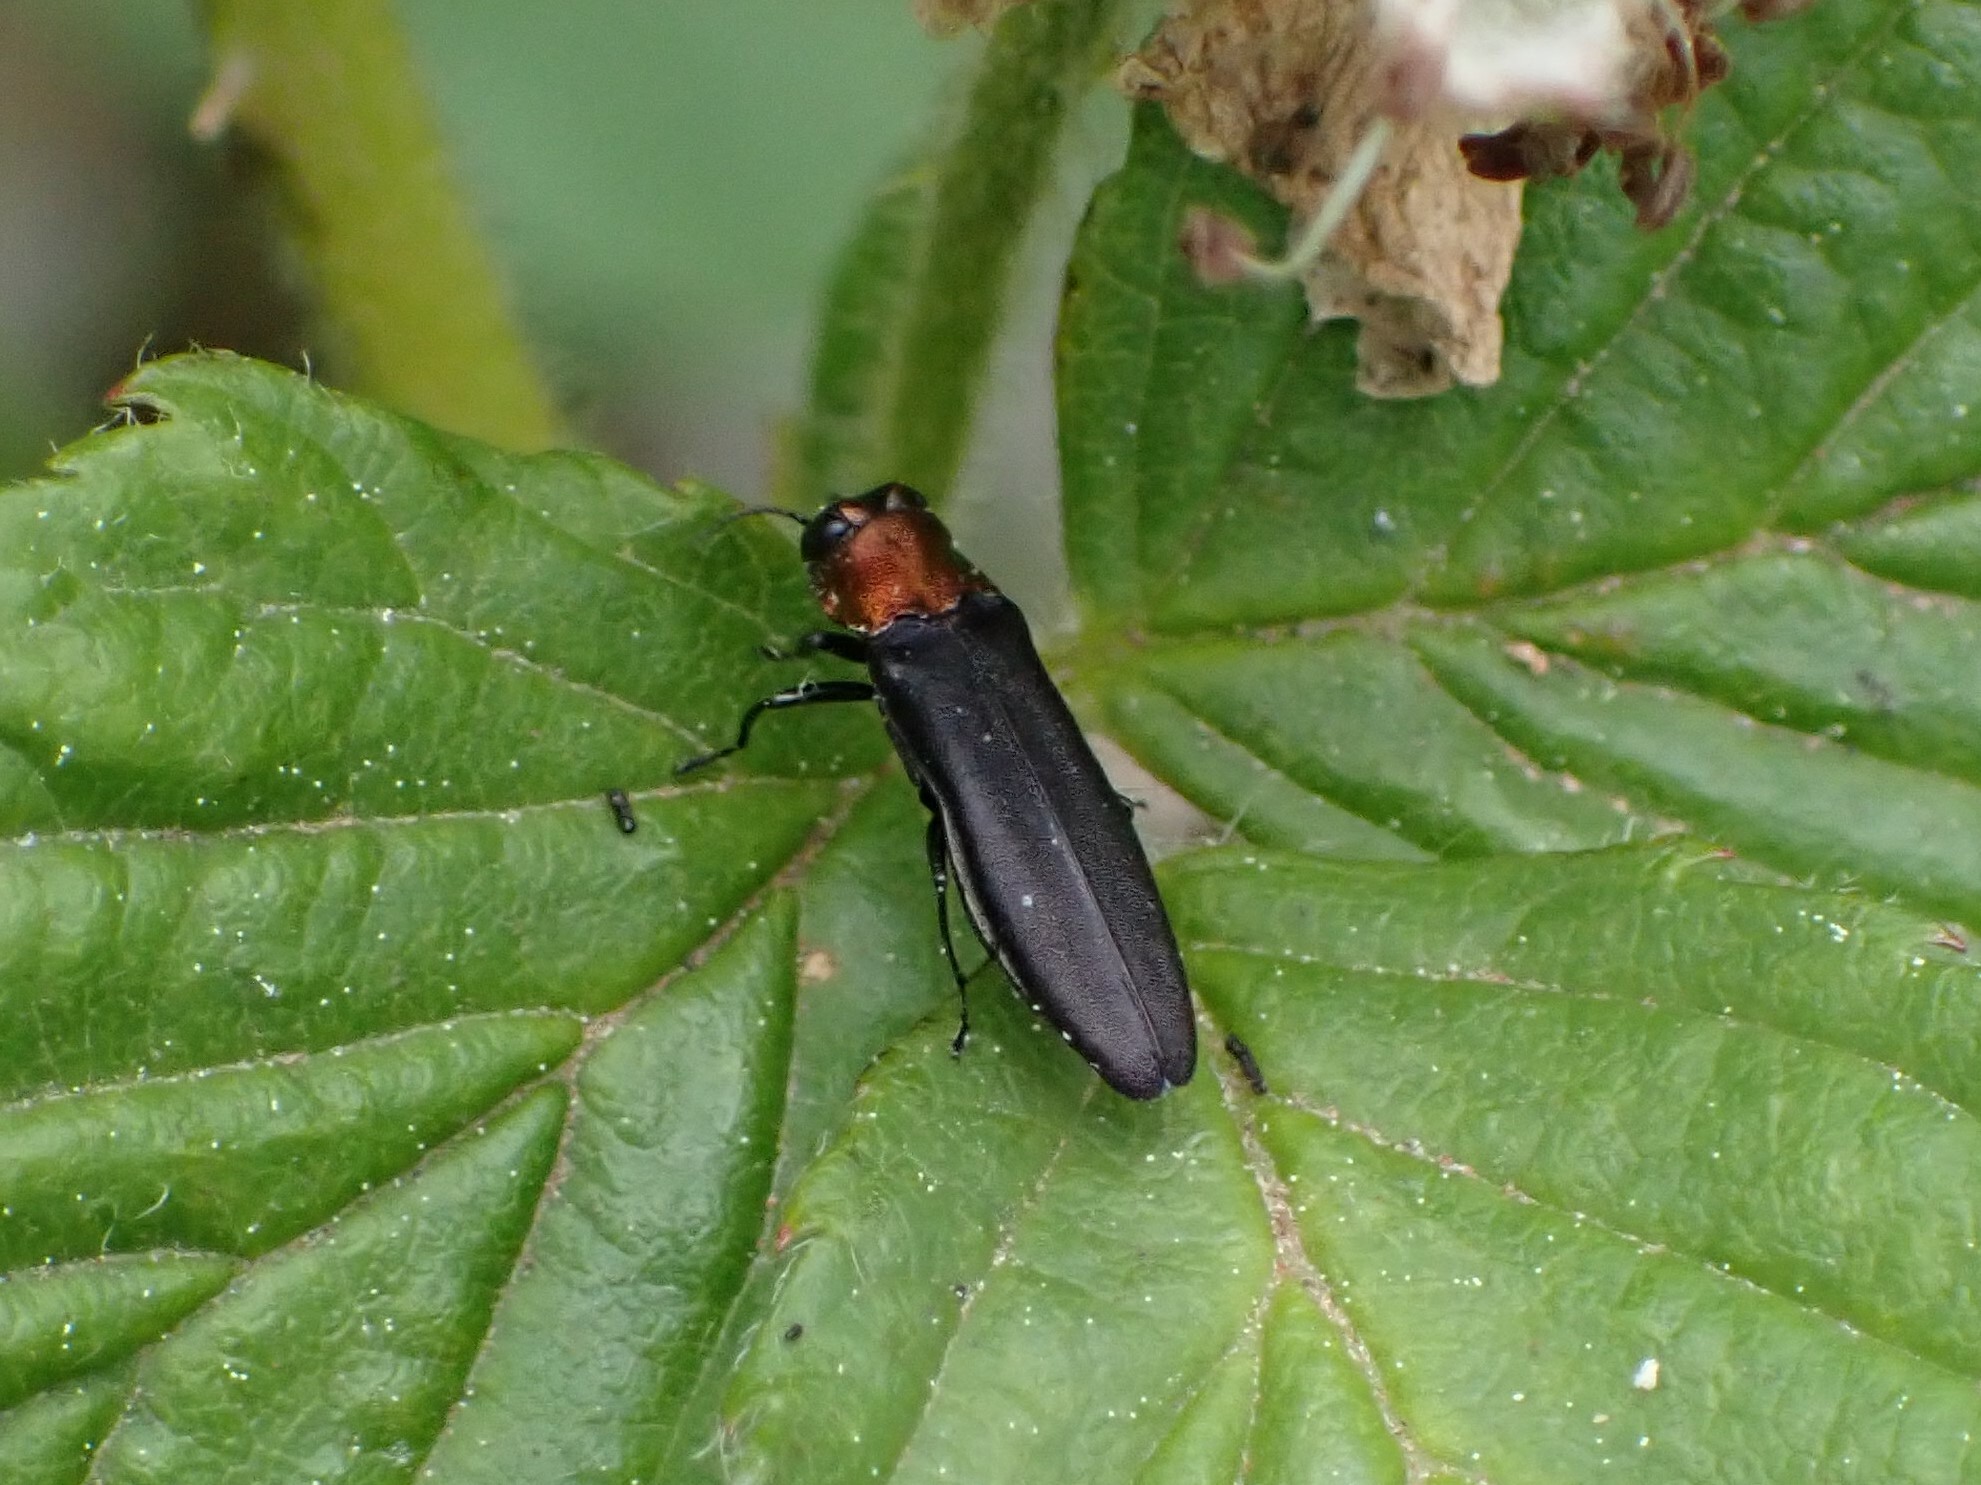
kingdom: Animalia
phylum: Arthropoda
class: Insecta
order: Coleoptera
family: Buprestidae
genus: Agrilus
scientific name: Agrilus ruficollis
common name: Red-necked cane borer beetle
